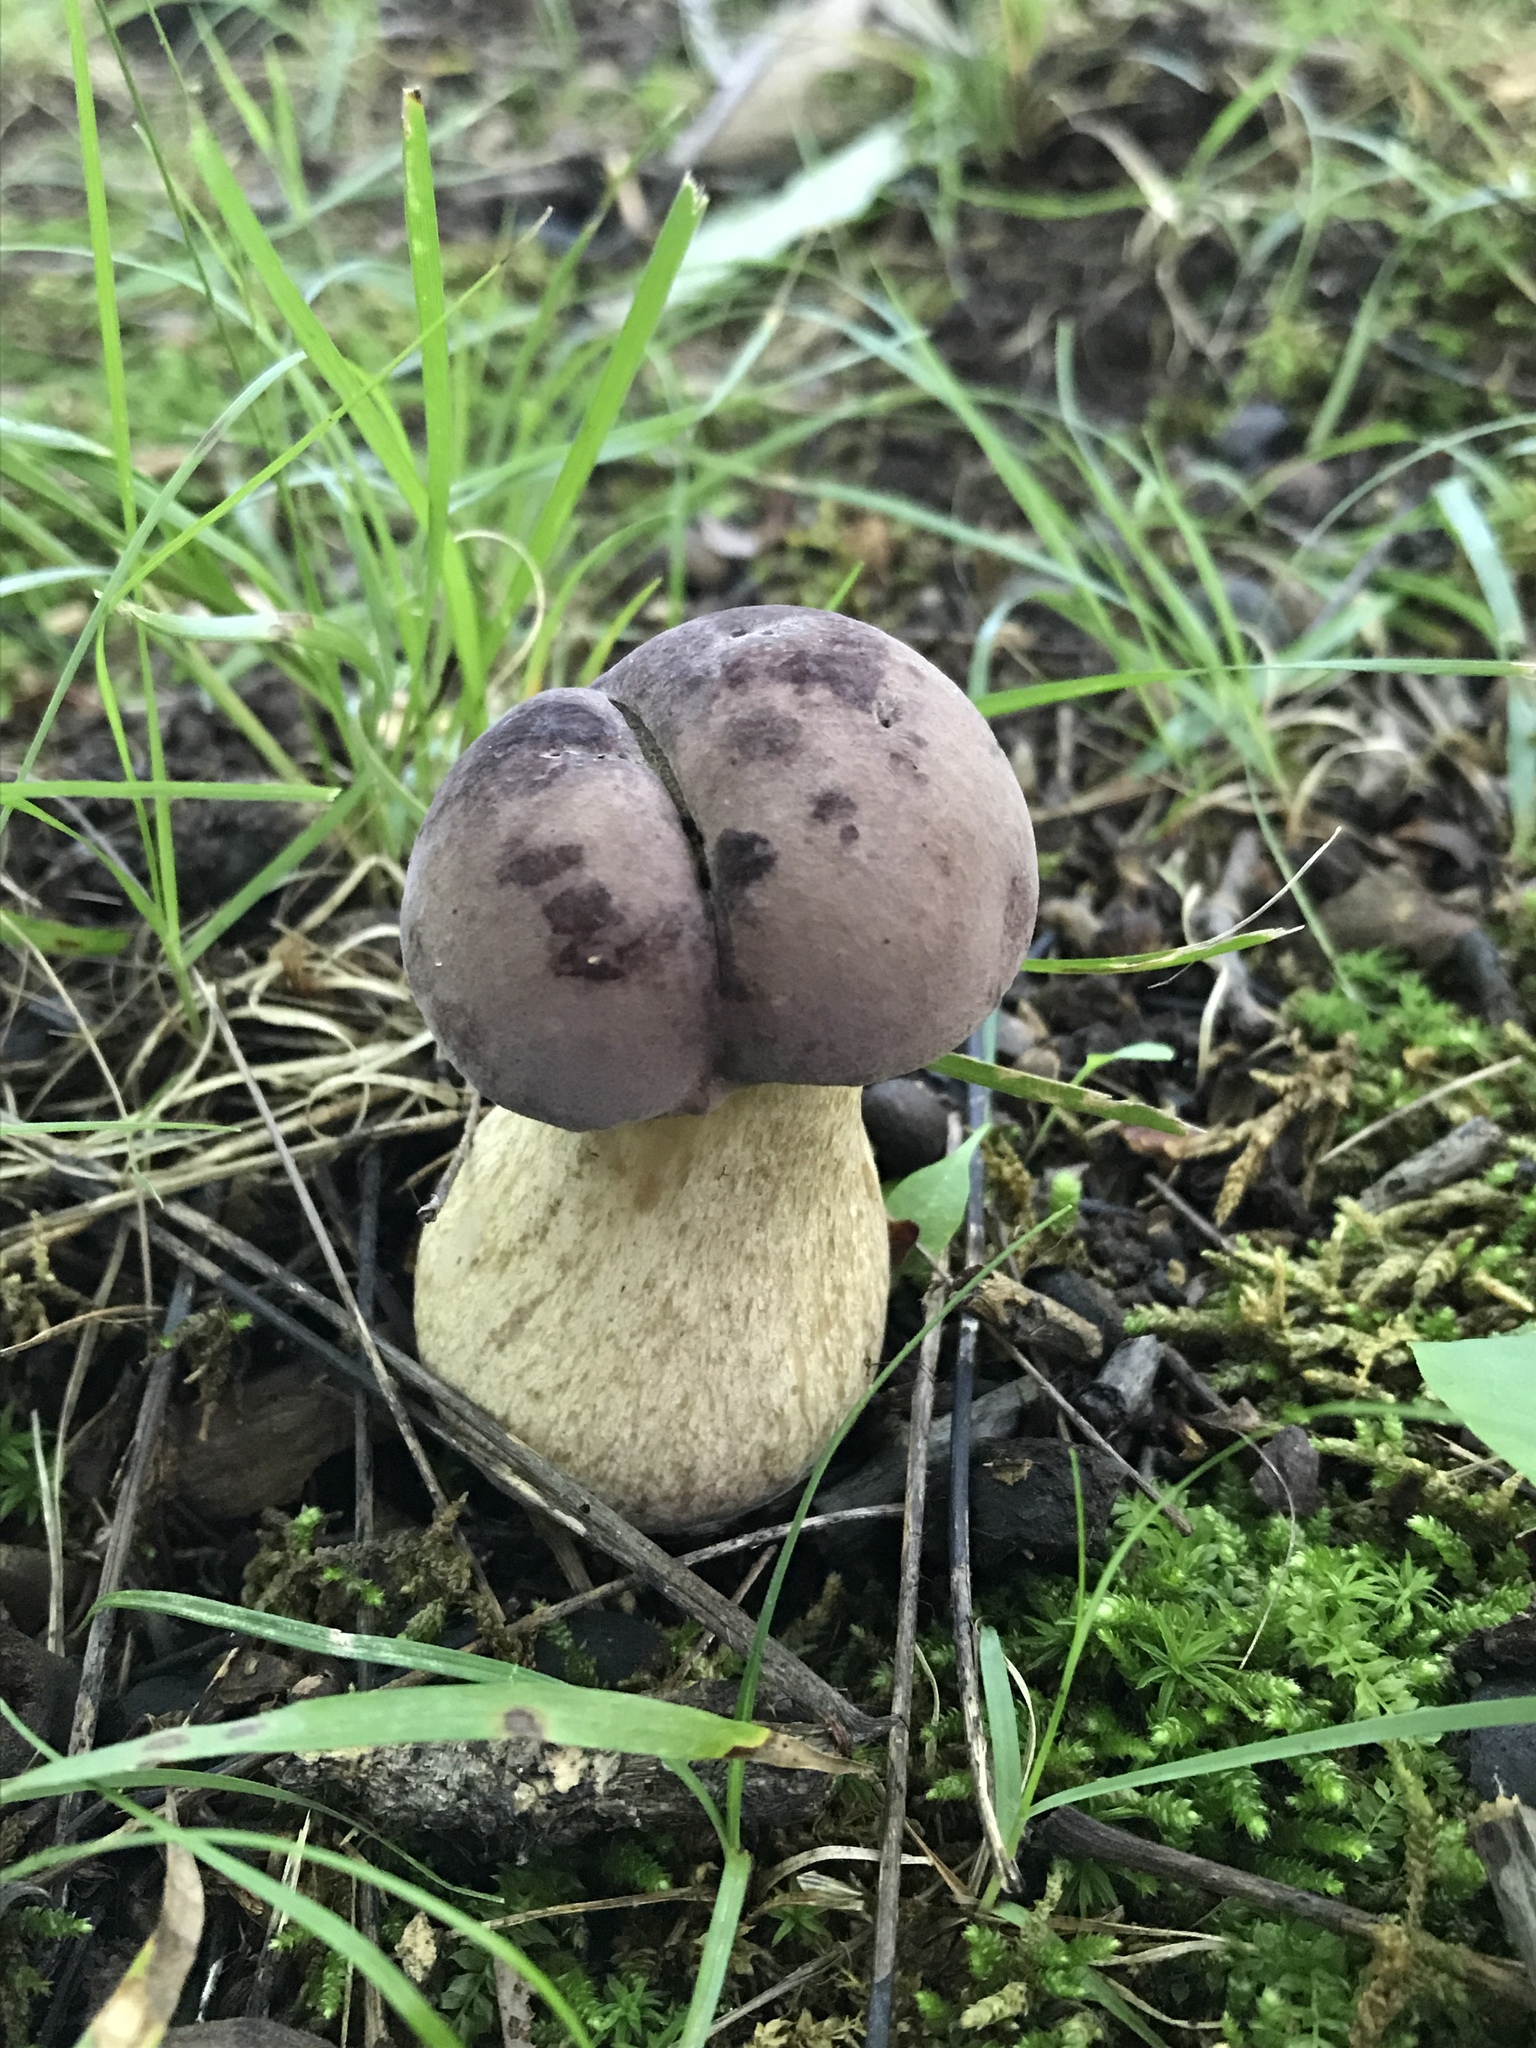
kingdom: Fungi
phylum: Basidiomycota
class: Agaricomycetes
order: Boletales
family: Boletaceae
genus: Tylopilus
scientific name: Tylopilus rubrobrunneus
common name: Reddish brown bitter bolete
